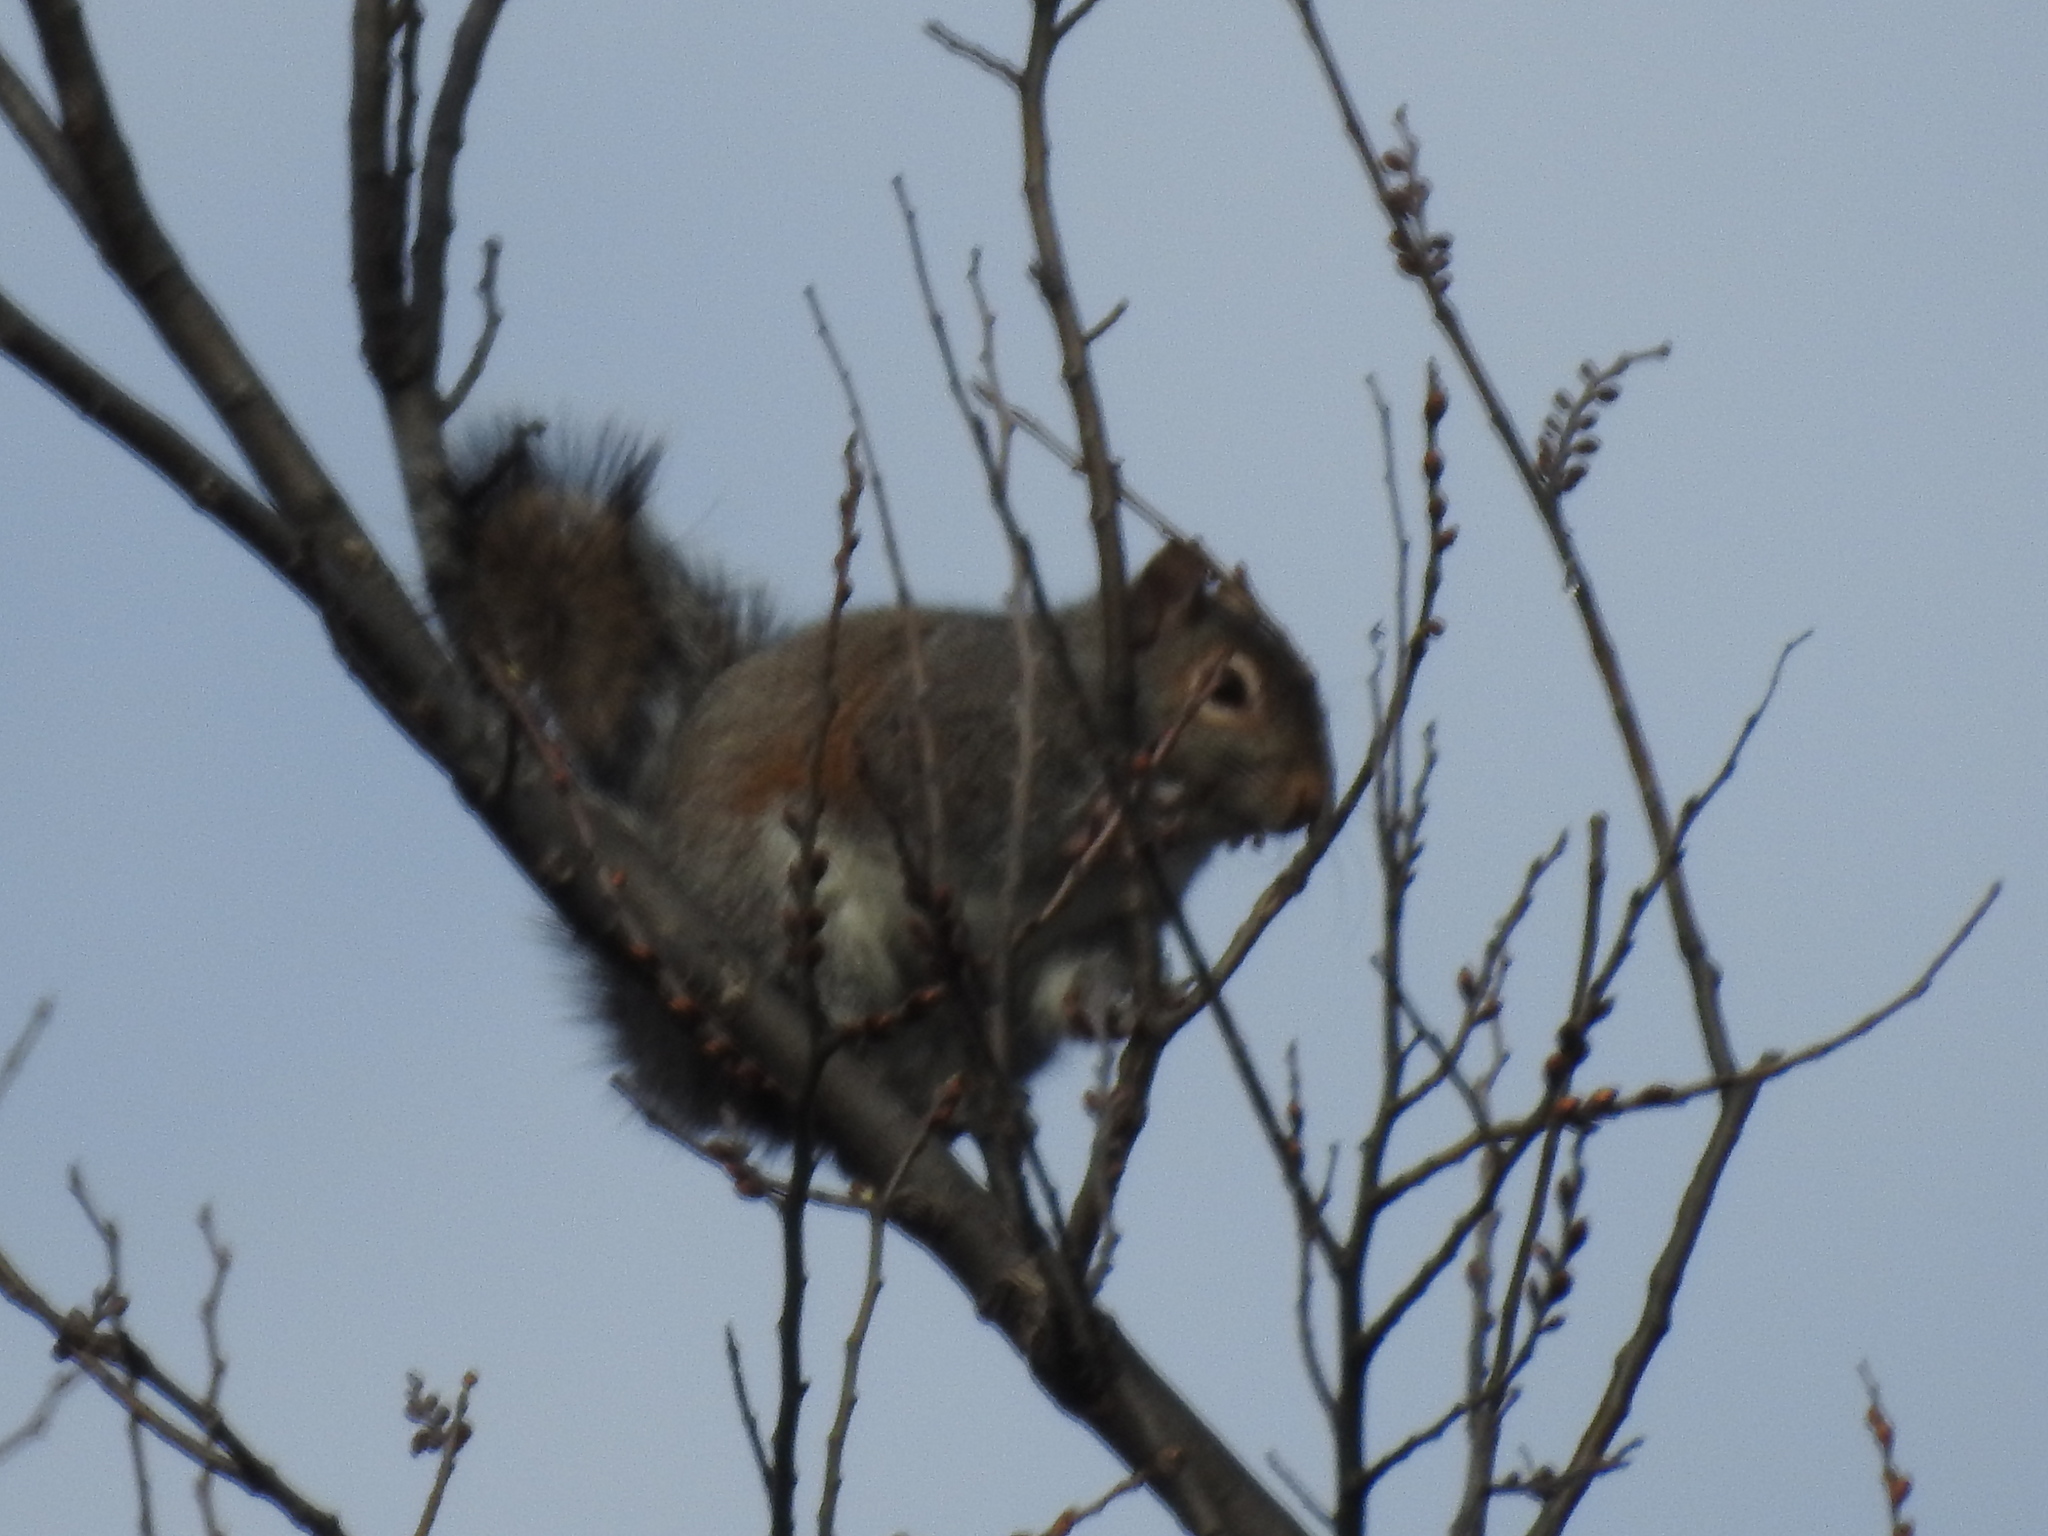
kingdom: Animalia
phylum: Chordata
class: Mammalia
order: Rodentia
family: Sciuridae
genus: Sciurus
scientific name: Sciurus carolinensis
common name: Eastern gray squirrel
